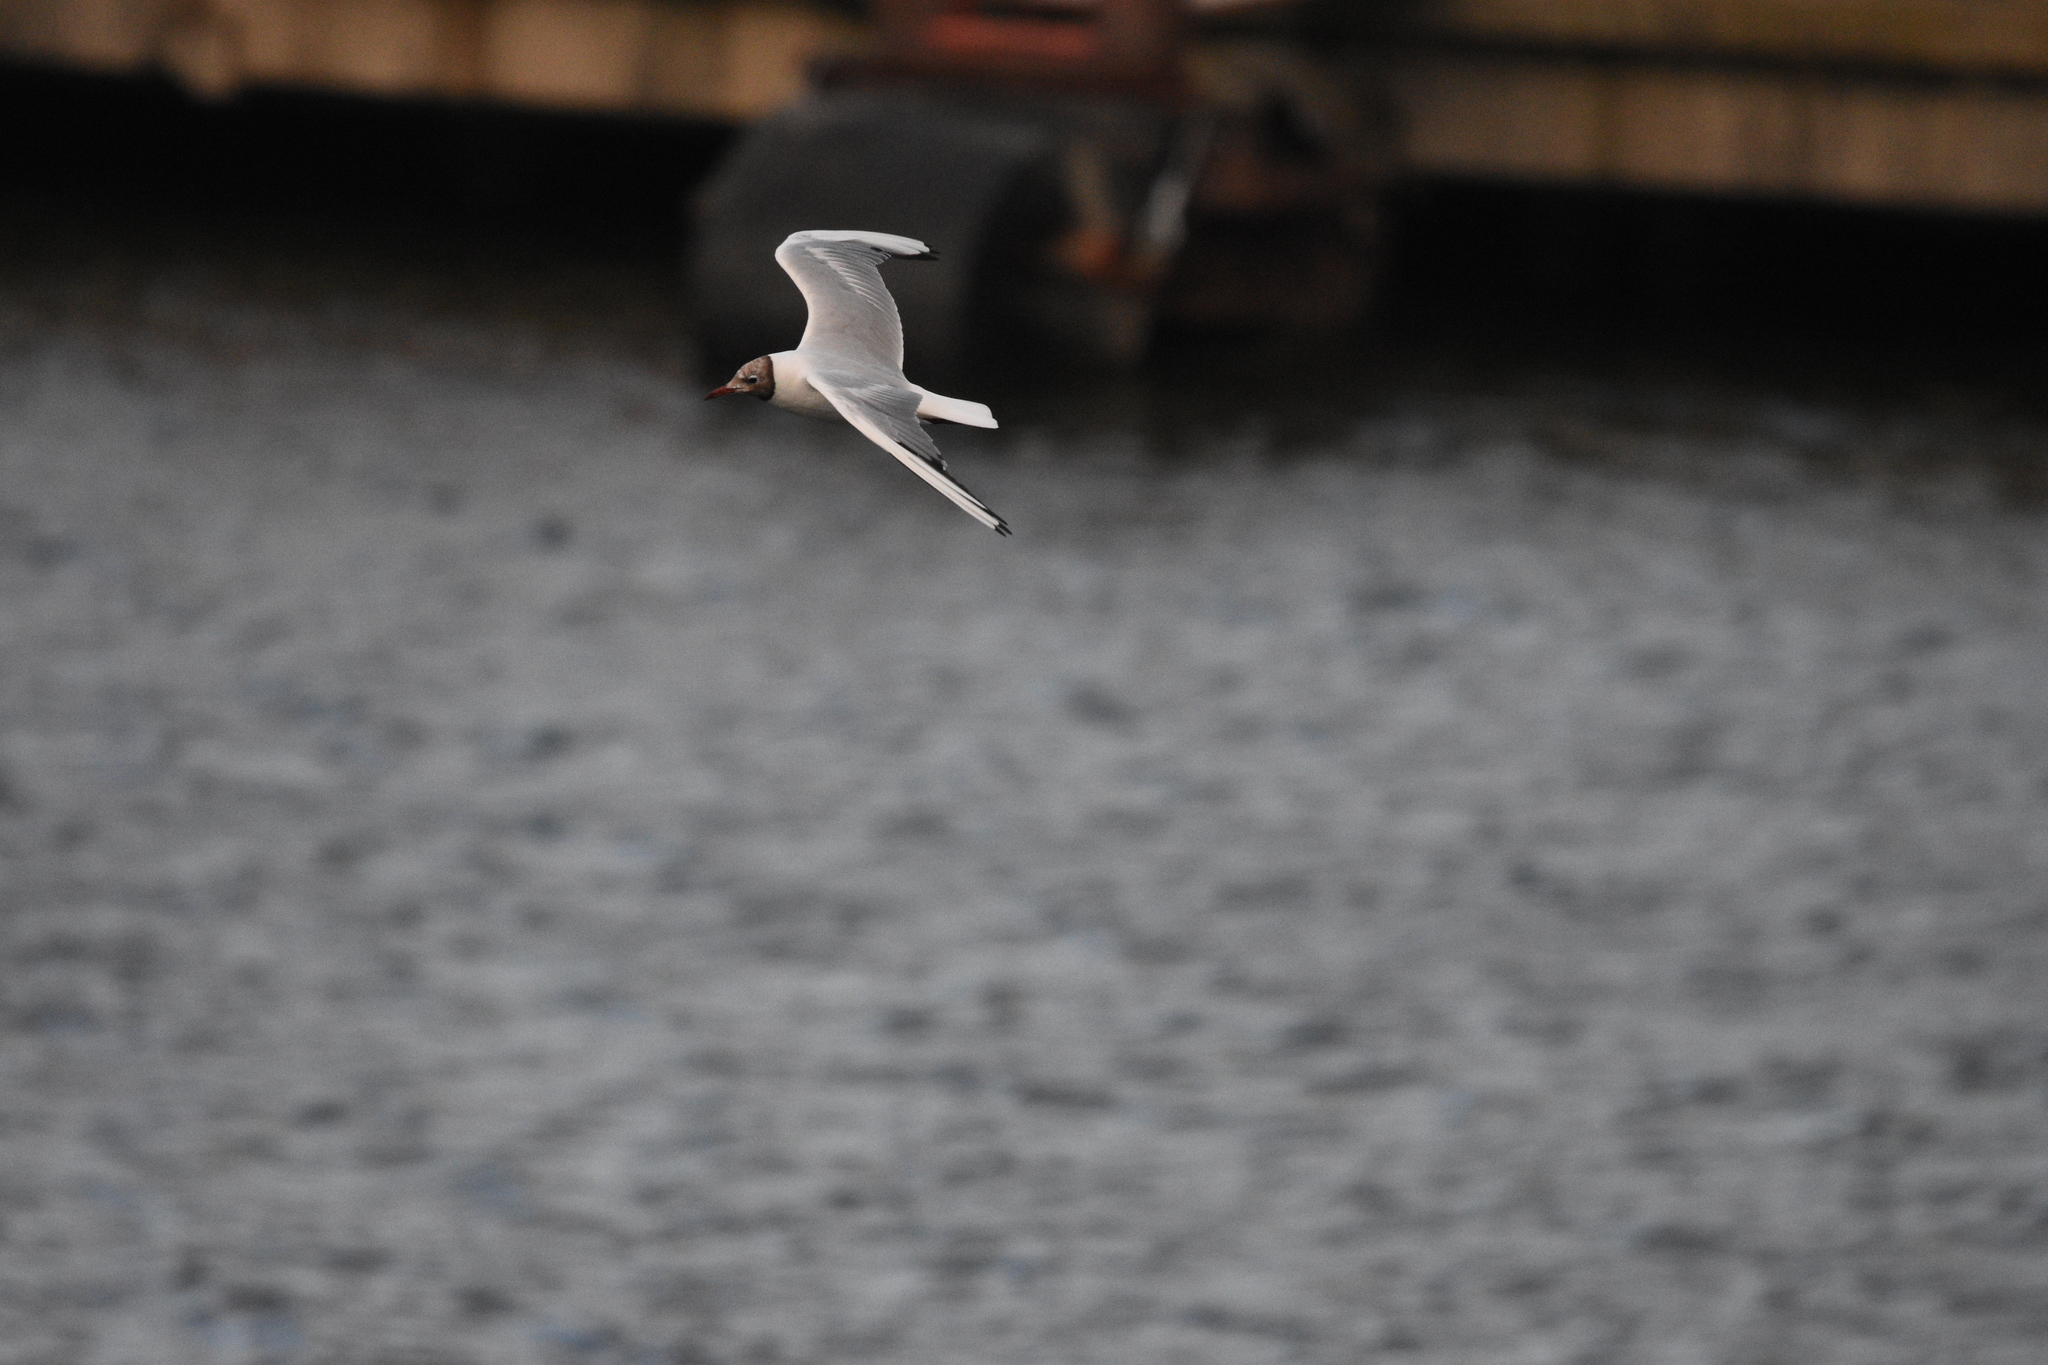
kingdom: Animalia
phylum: Chordata
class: Aves
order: Charadriiformes
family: Laridae
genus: Chroicocephalus
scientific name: Chroicocephalus ridibundus
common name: Black-headed gull
